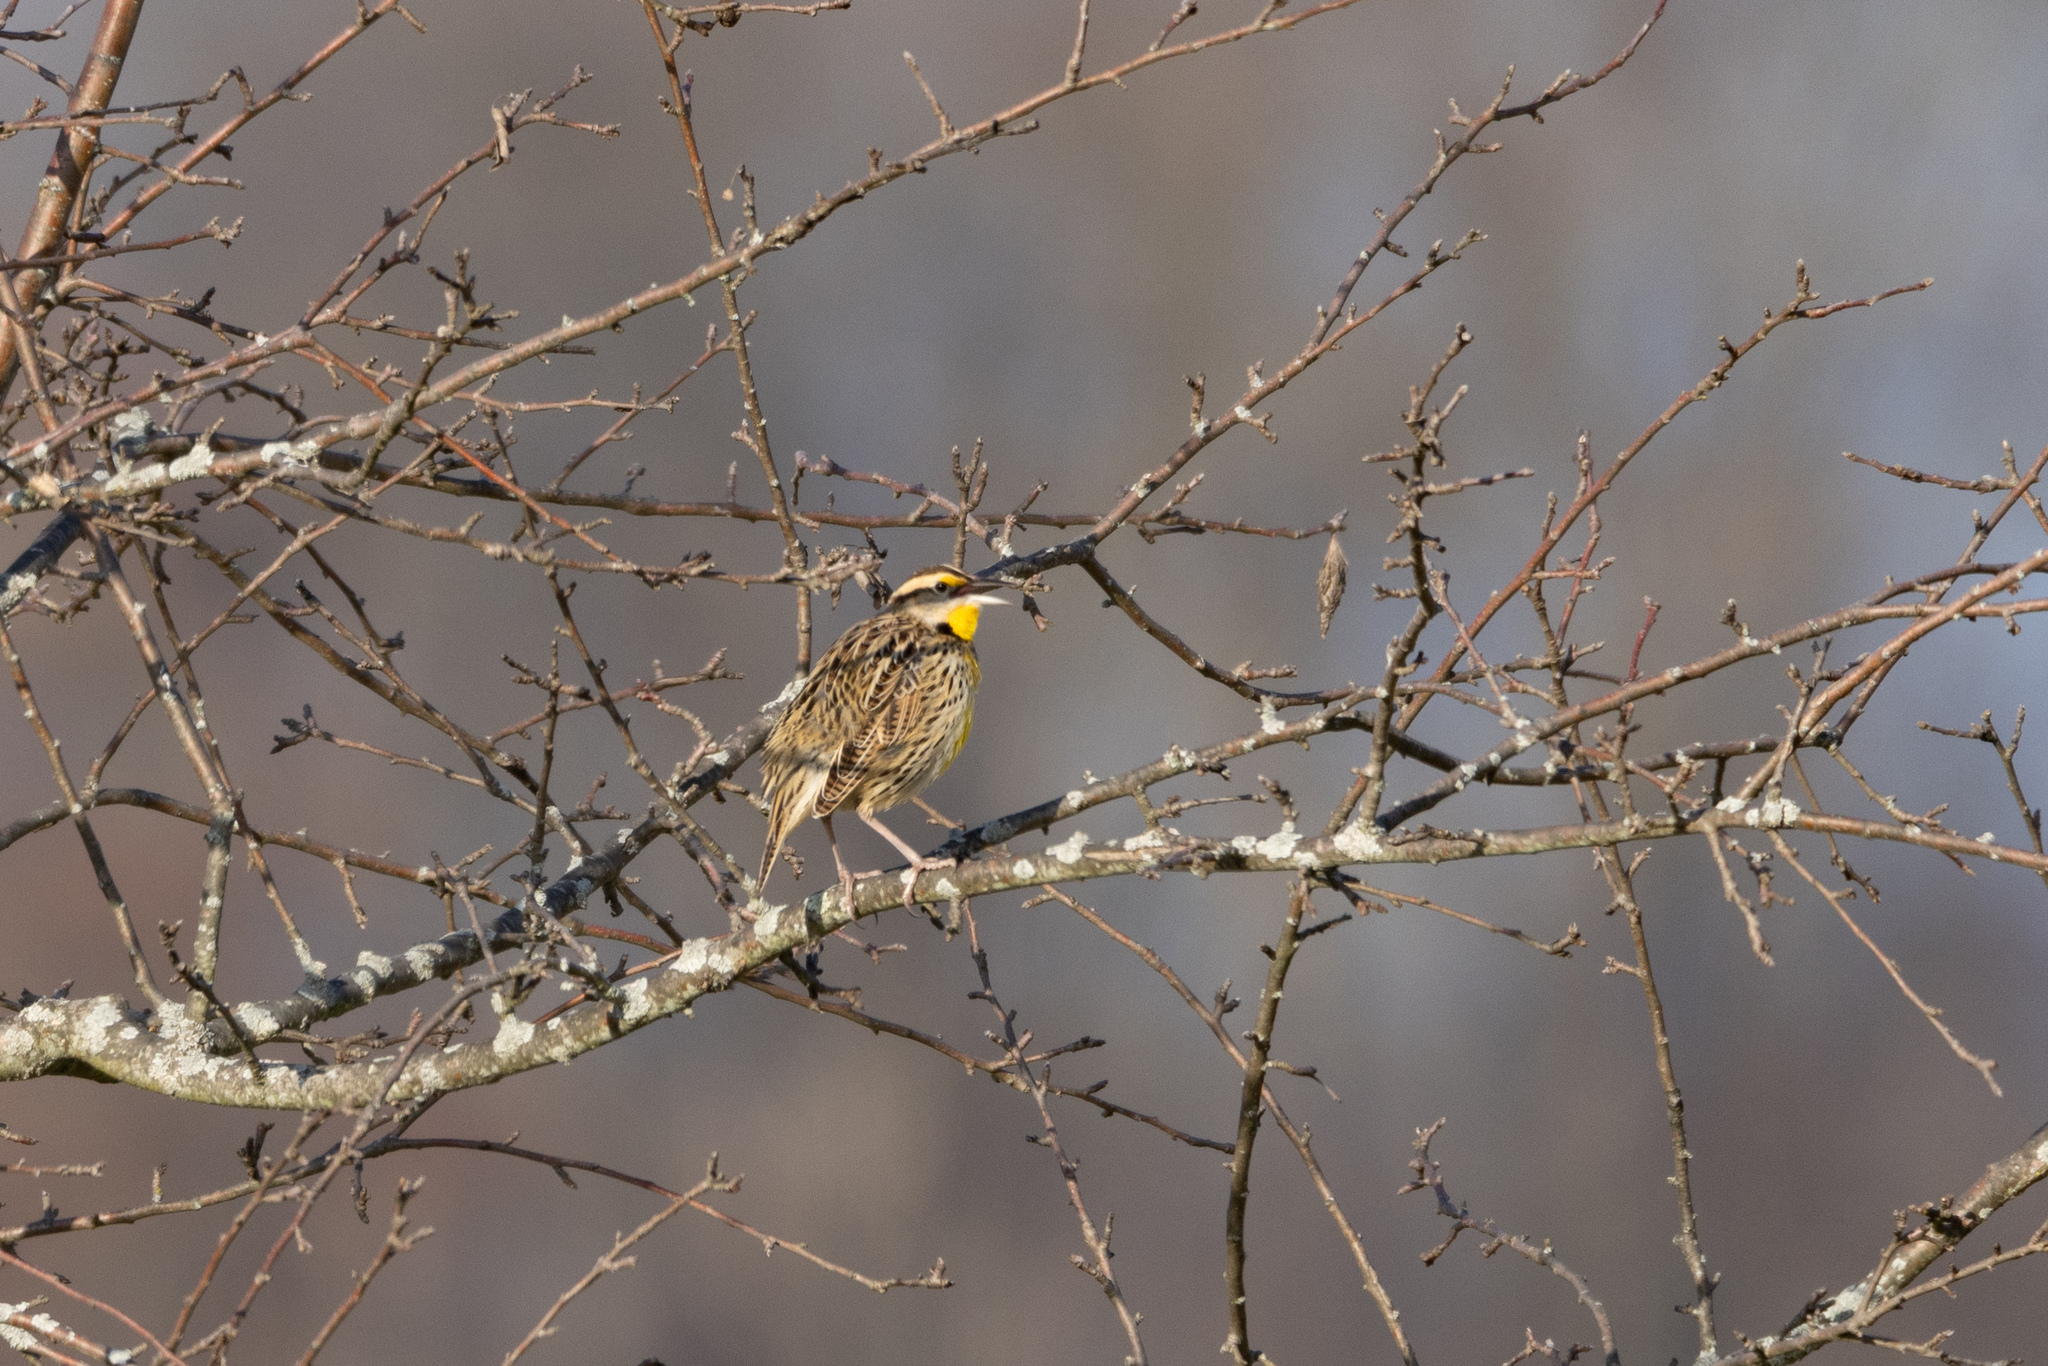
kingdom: Animalia
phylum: Chordata
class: Aves
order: Passeriformes
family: Icteridae
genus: Sturnella
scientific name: Sturnella magna
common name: Eastern meadowlark
